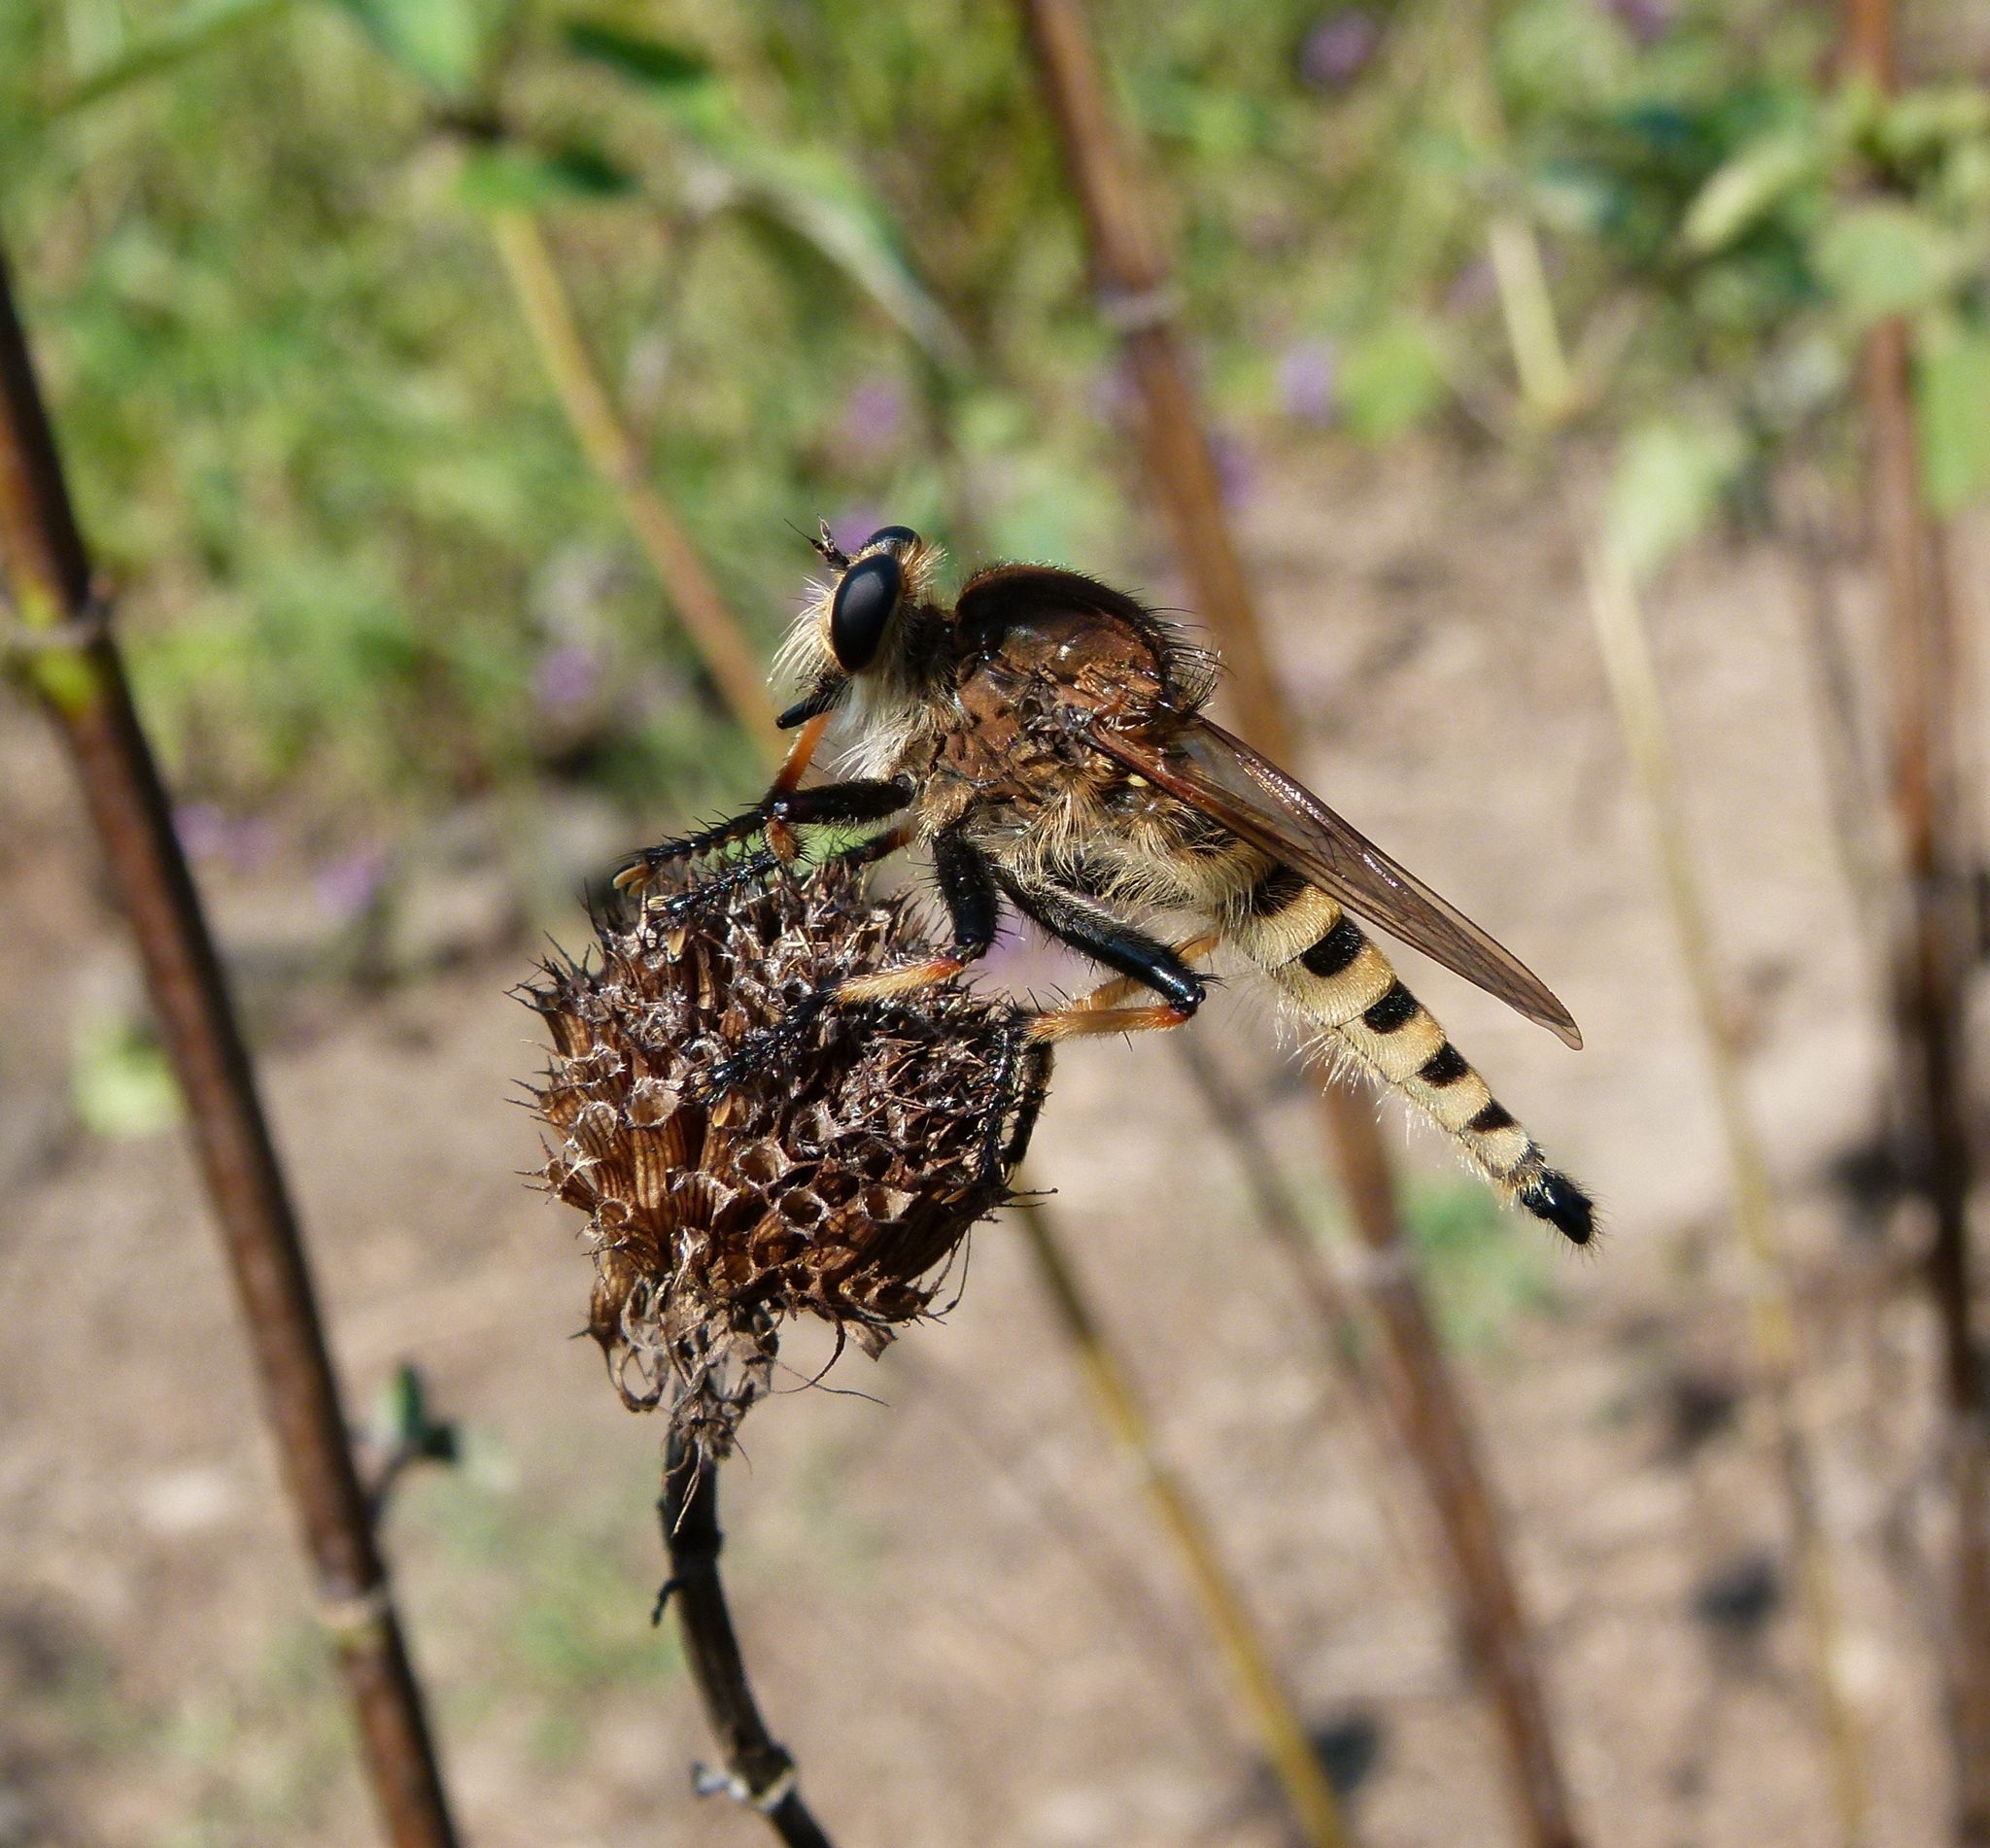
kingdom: Animalia
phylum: Arthropoda
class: Insecta
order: Diptera
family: Asilidae
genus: Promachus
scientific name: Promachus rufipes
